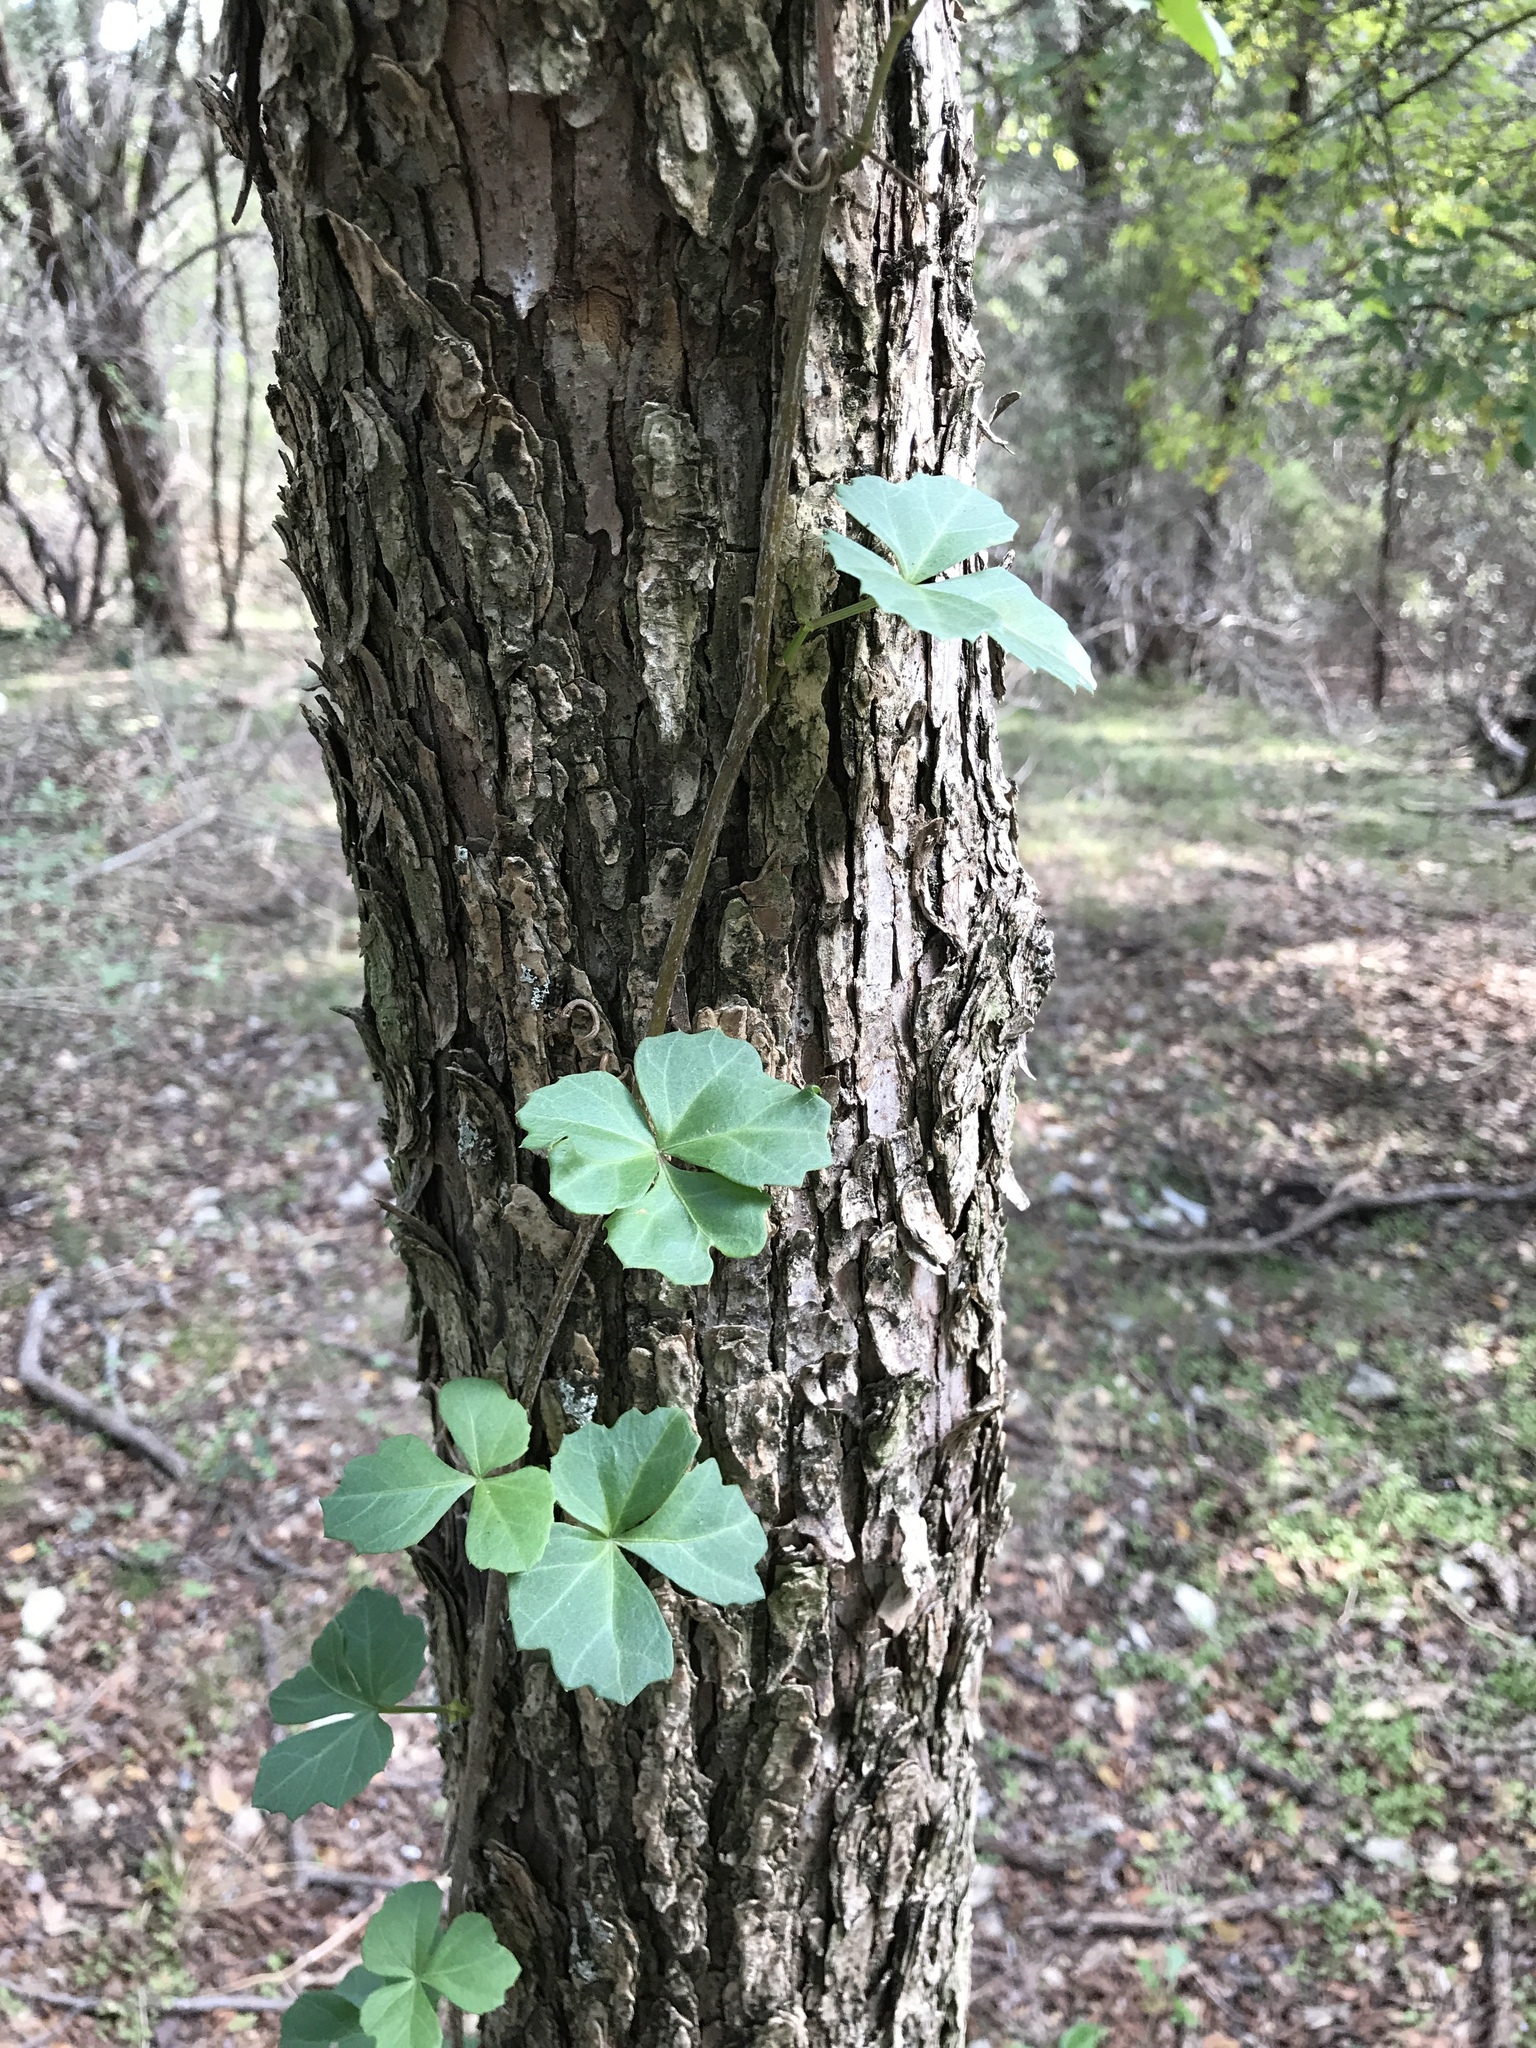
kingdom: Plantae
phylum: Tracheophyta
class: Magnoliopsida
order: Vitales
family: Vitaceae
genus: Cissus
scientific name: Cissus trifoliata
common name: Vine-sorrel
